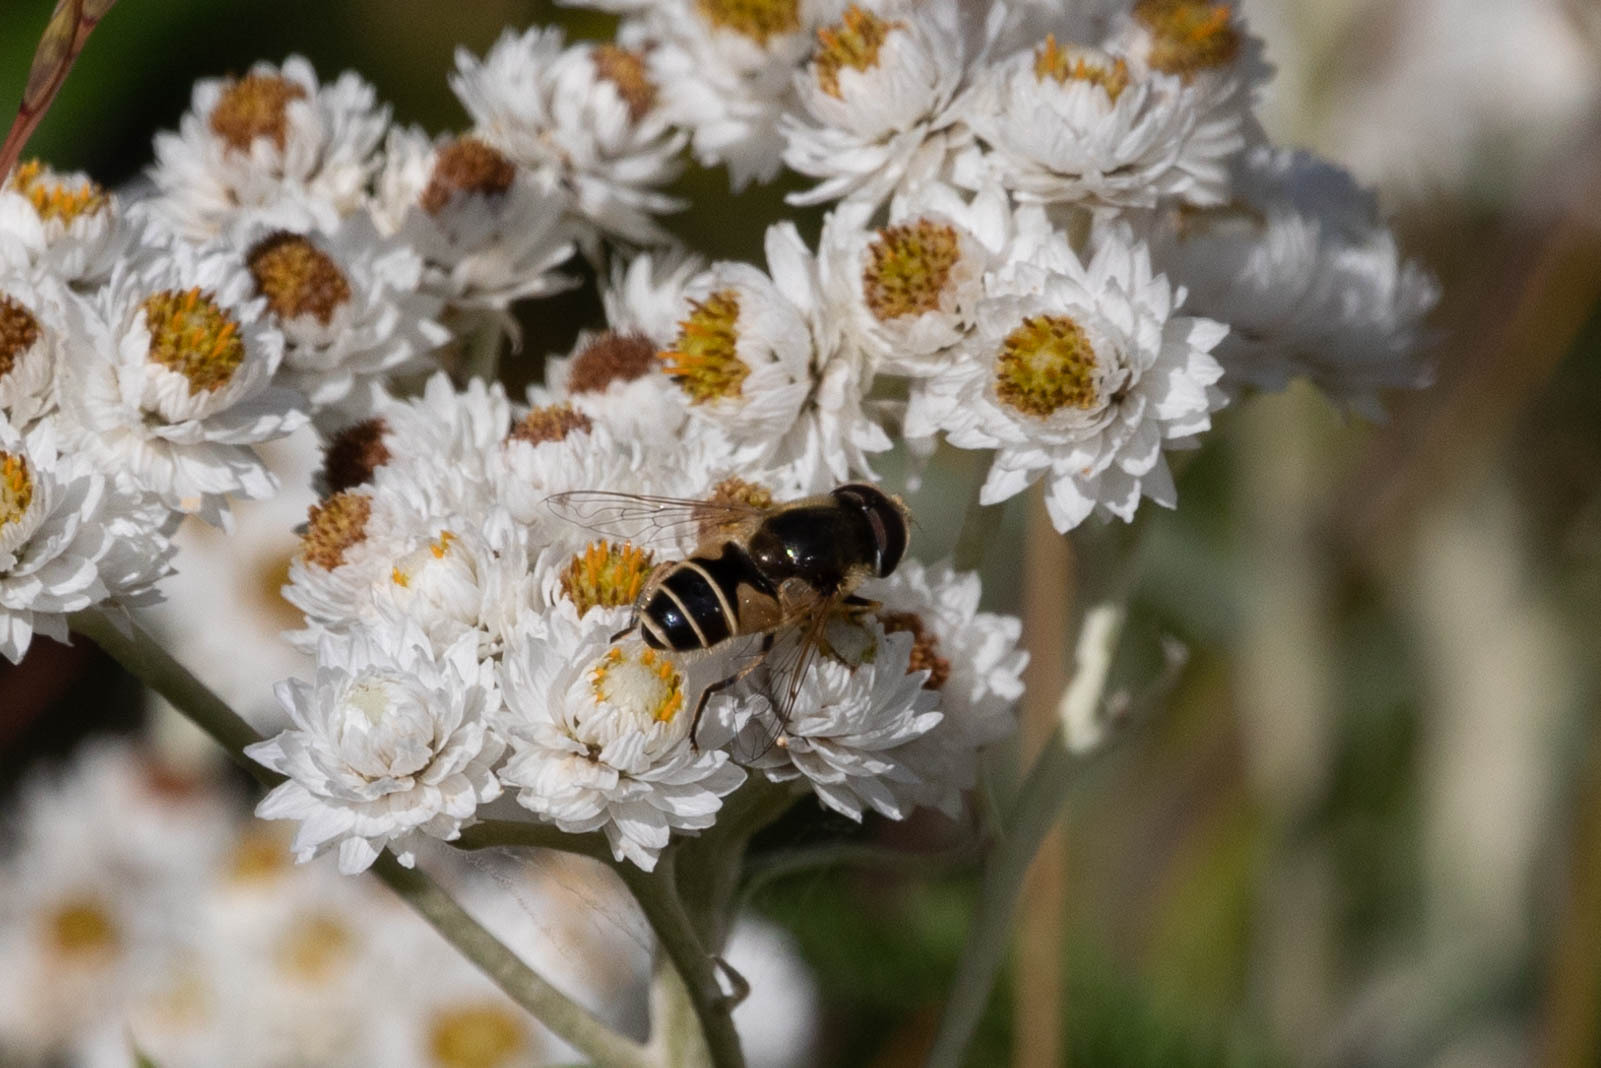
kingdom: Animalia
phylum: Arthropoda
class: Insecta
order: Diptera
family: Syrphidae
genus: Eristalis
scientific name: Eristalis hirta
